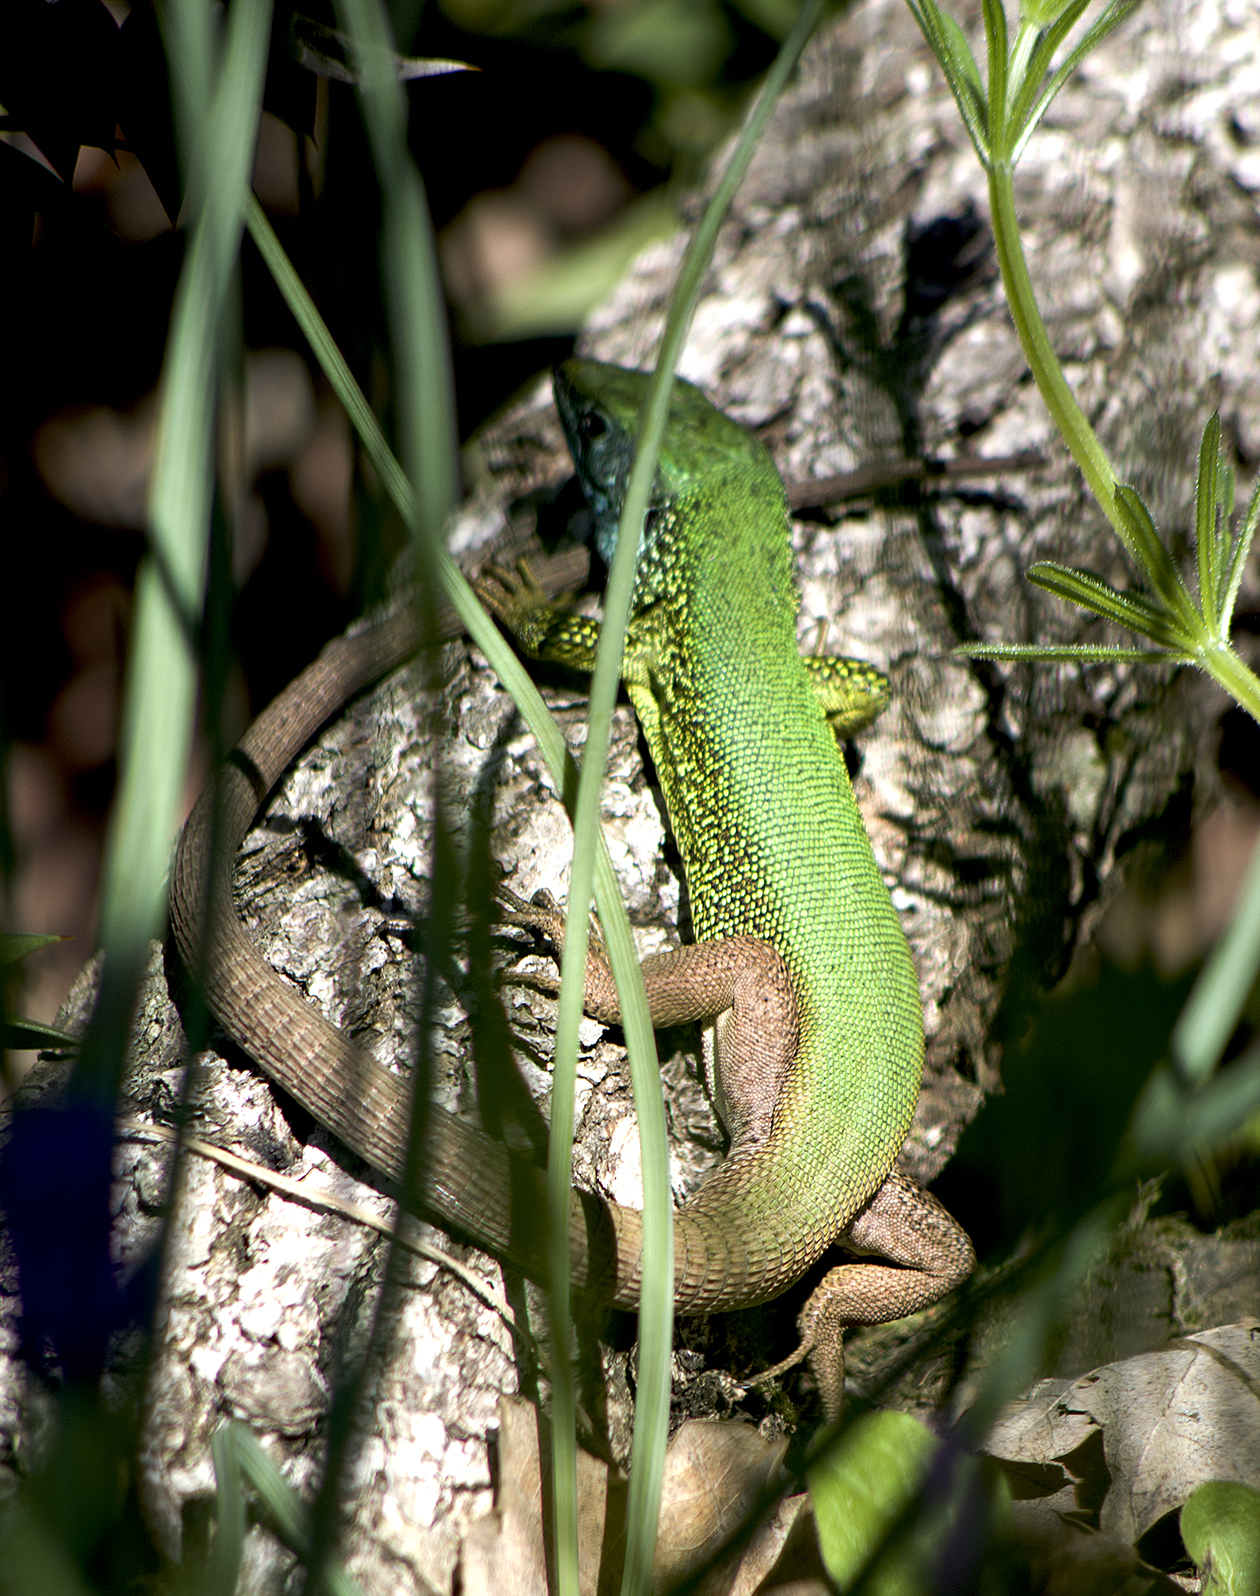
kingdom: Animalia
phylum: Chordata
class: Squamata
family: Lacertidae
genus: Lacerta
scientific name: Lacerta viridis
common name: European green lizard
